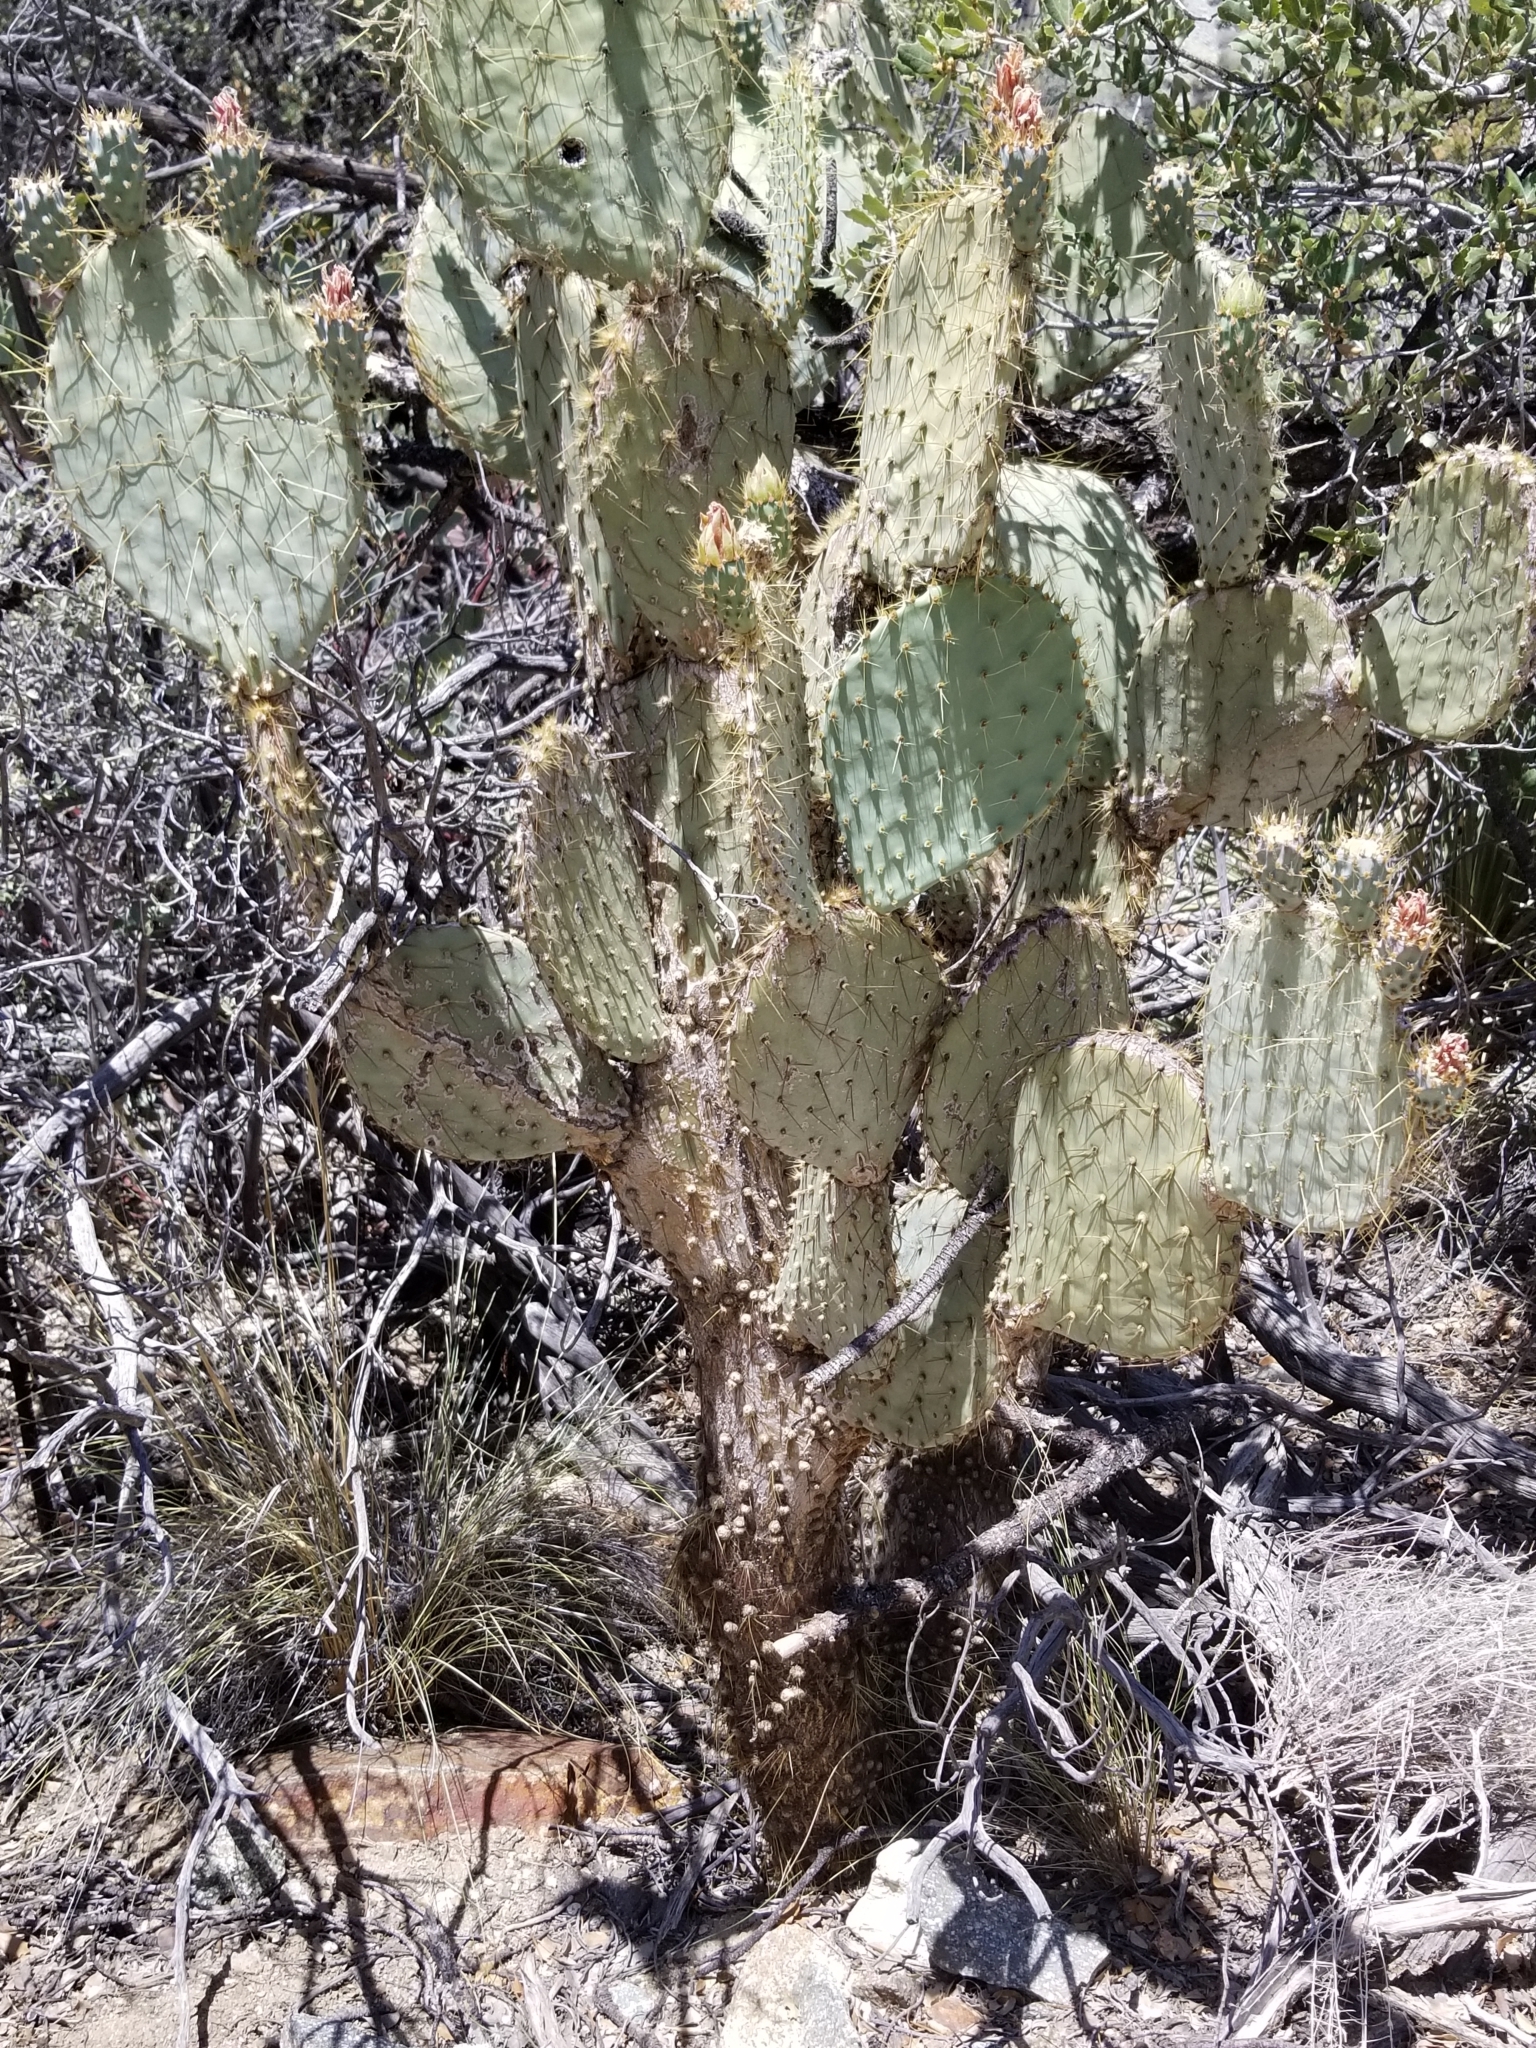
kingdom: Plantae
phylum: Tracheophyta
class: Magnoliopsida
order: Caryophyllales
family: Cactaceae
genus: Opuntia
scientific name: Opuntia chlorotica
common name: Dollar-joint prickly-pear
